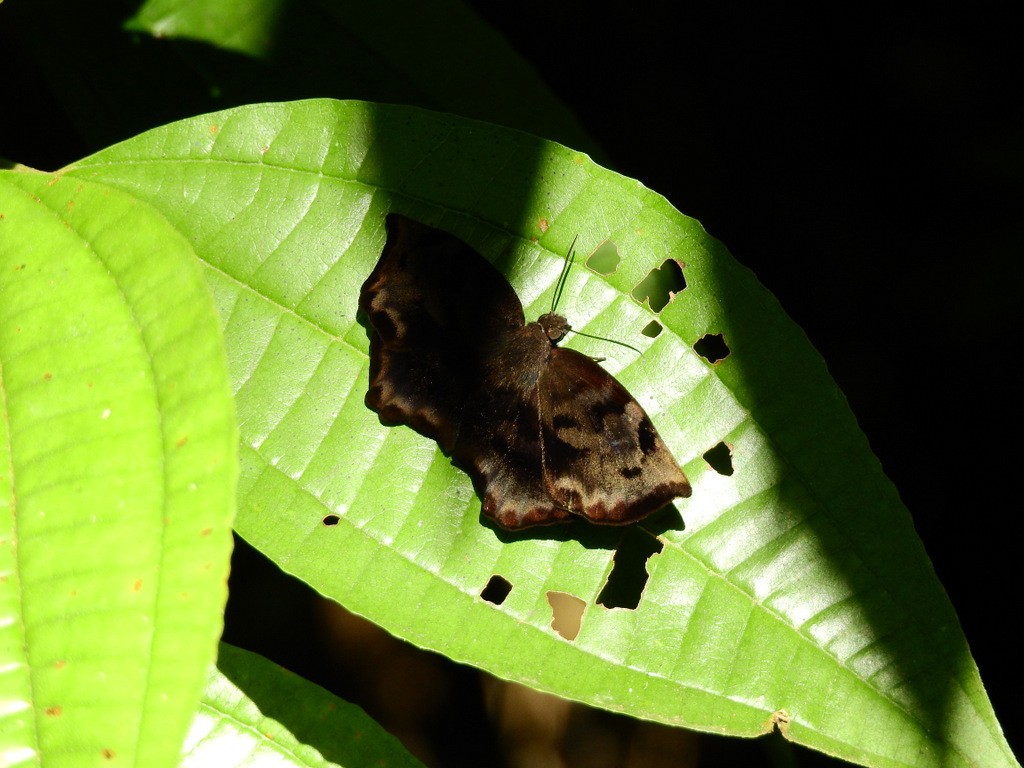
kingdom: Animalia
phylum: Arthropoda
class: Insecta
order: Lepidoptera
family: Hesperiidae
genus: Achlyodes
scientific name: Achlyodes busirus
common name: Giant sicklewing
